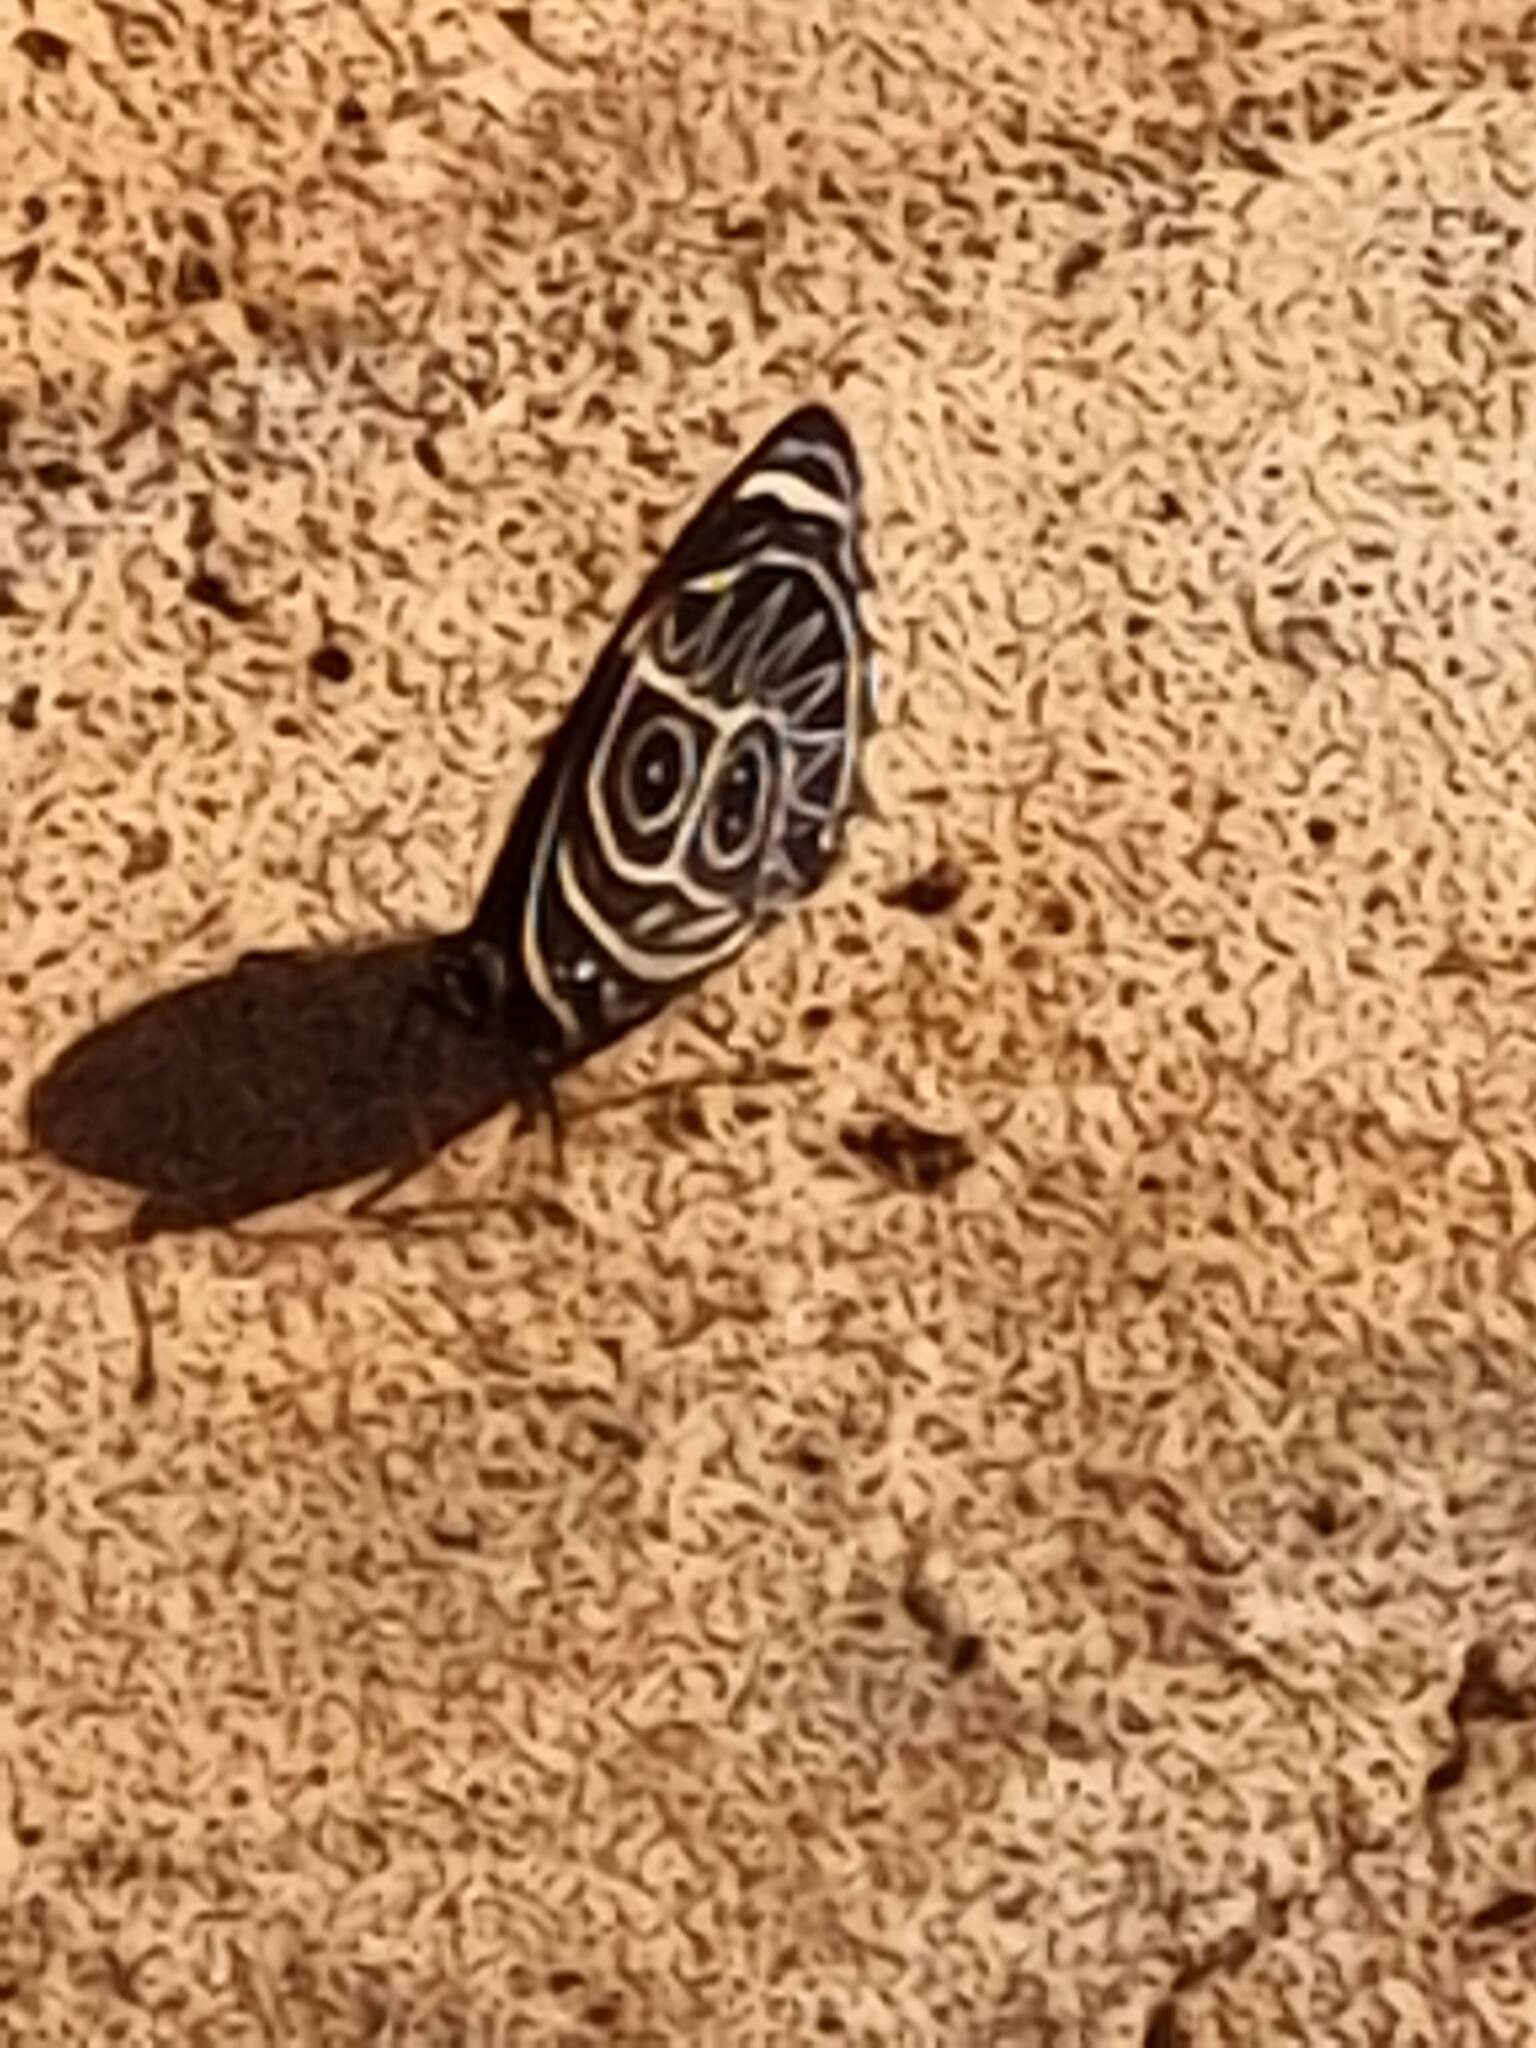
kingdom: Animalia
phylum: Arthropoda
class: Insecta
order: Lepidoptera
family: Nymphalidae
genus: Catagramma
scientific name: Catagramma Callicore sorana
